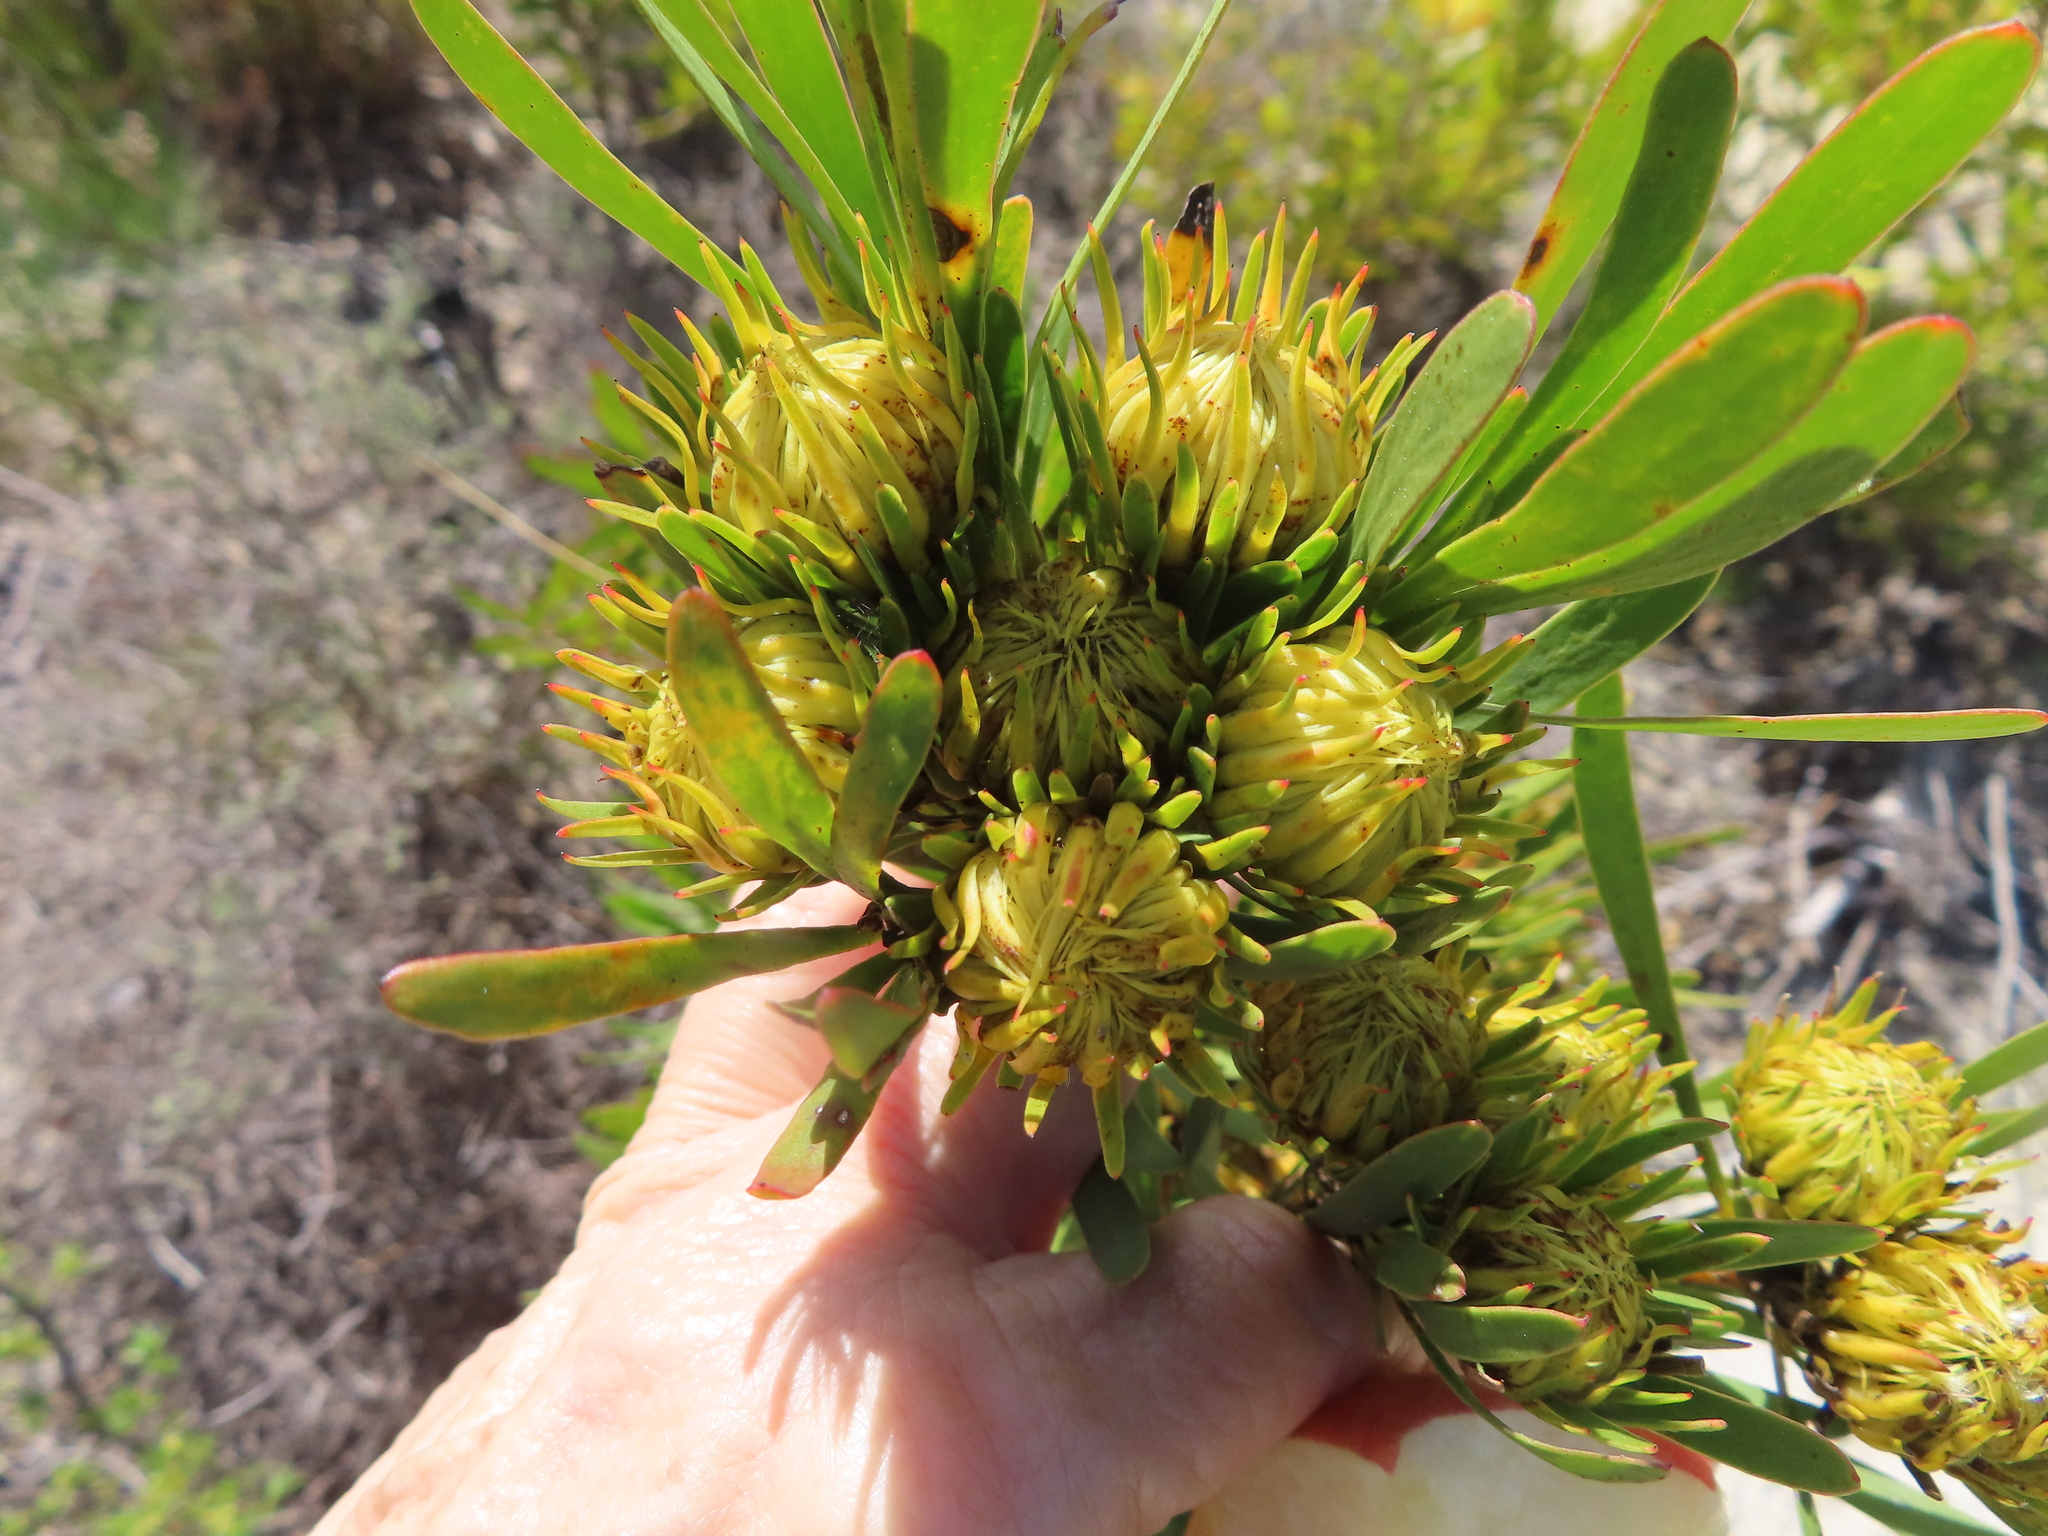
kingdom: Plantae
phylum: Tracheophyta
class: Magnoliopsida
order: Proteales
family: Proteaceae
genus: Aulax
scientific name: Aulax umbellata
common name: Broad-leaf featherbush
